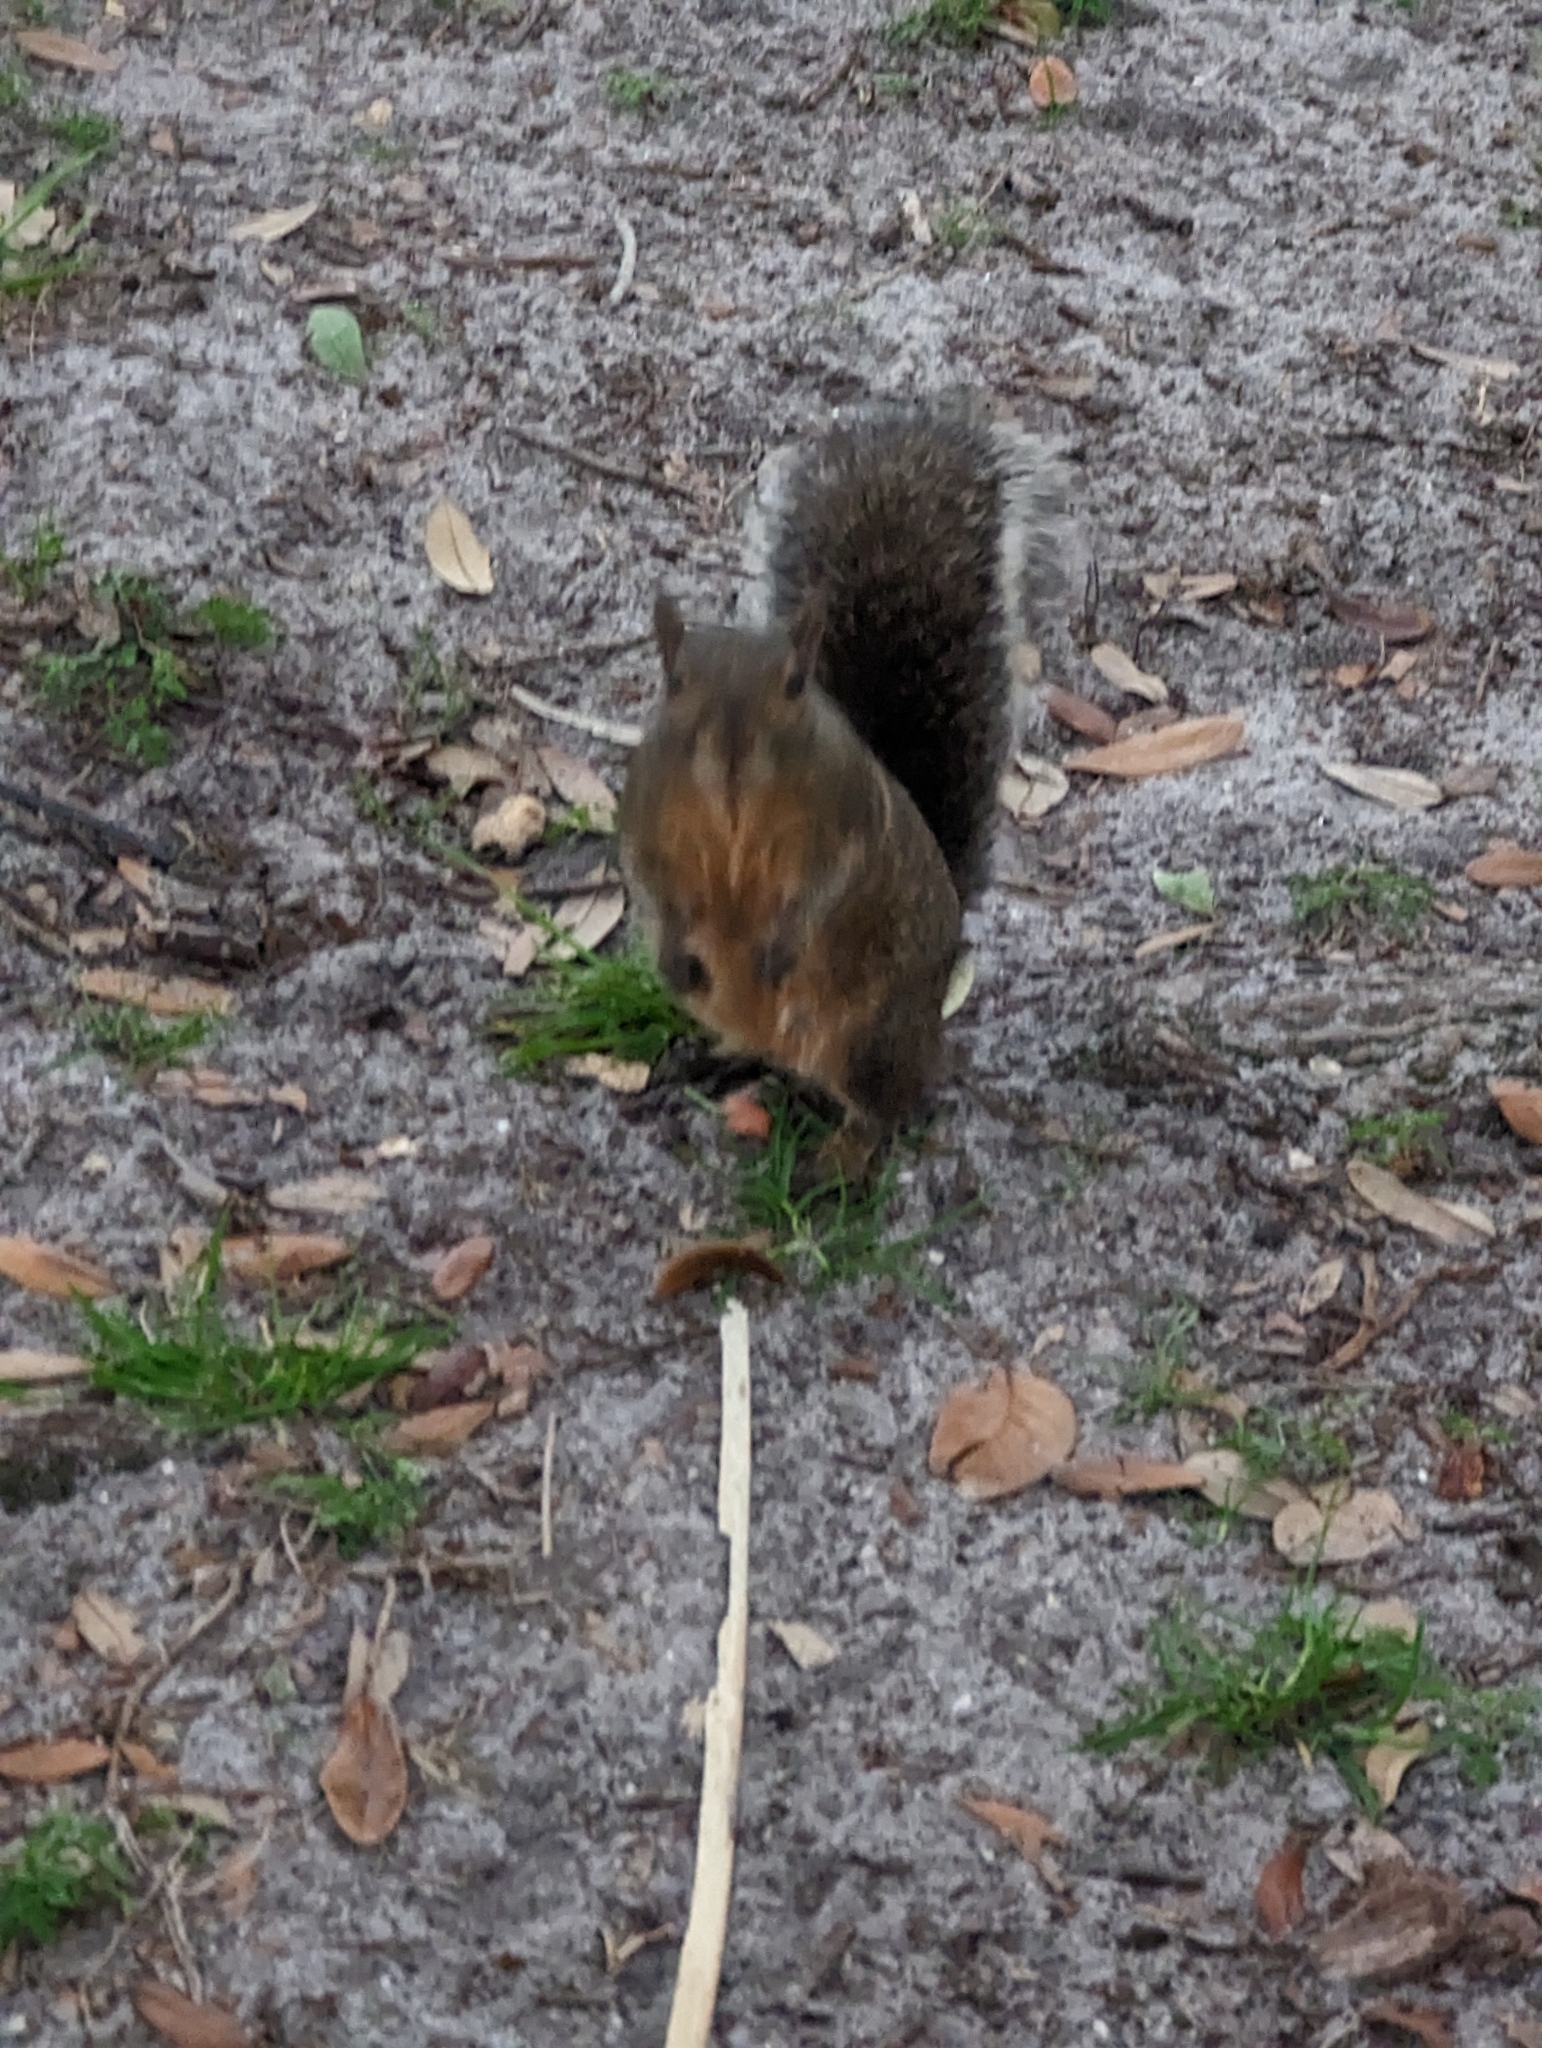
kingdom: Animalia
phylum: Chordata
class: Mammalia
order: Rodentia
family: Sciuridae
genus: Sciurus
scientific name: Sciurus carolinensis
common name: Eastern gray squirrel
